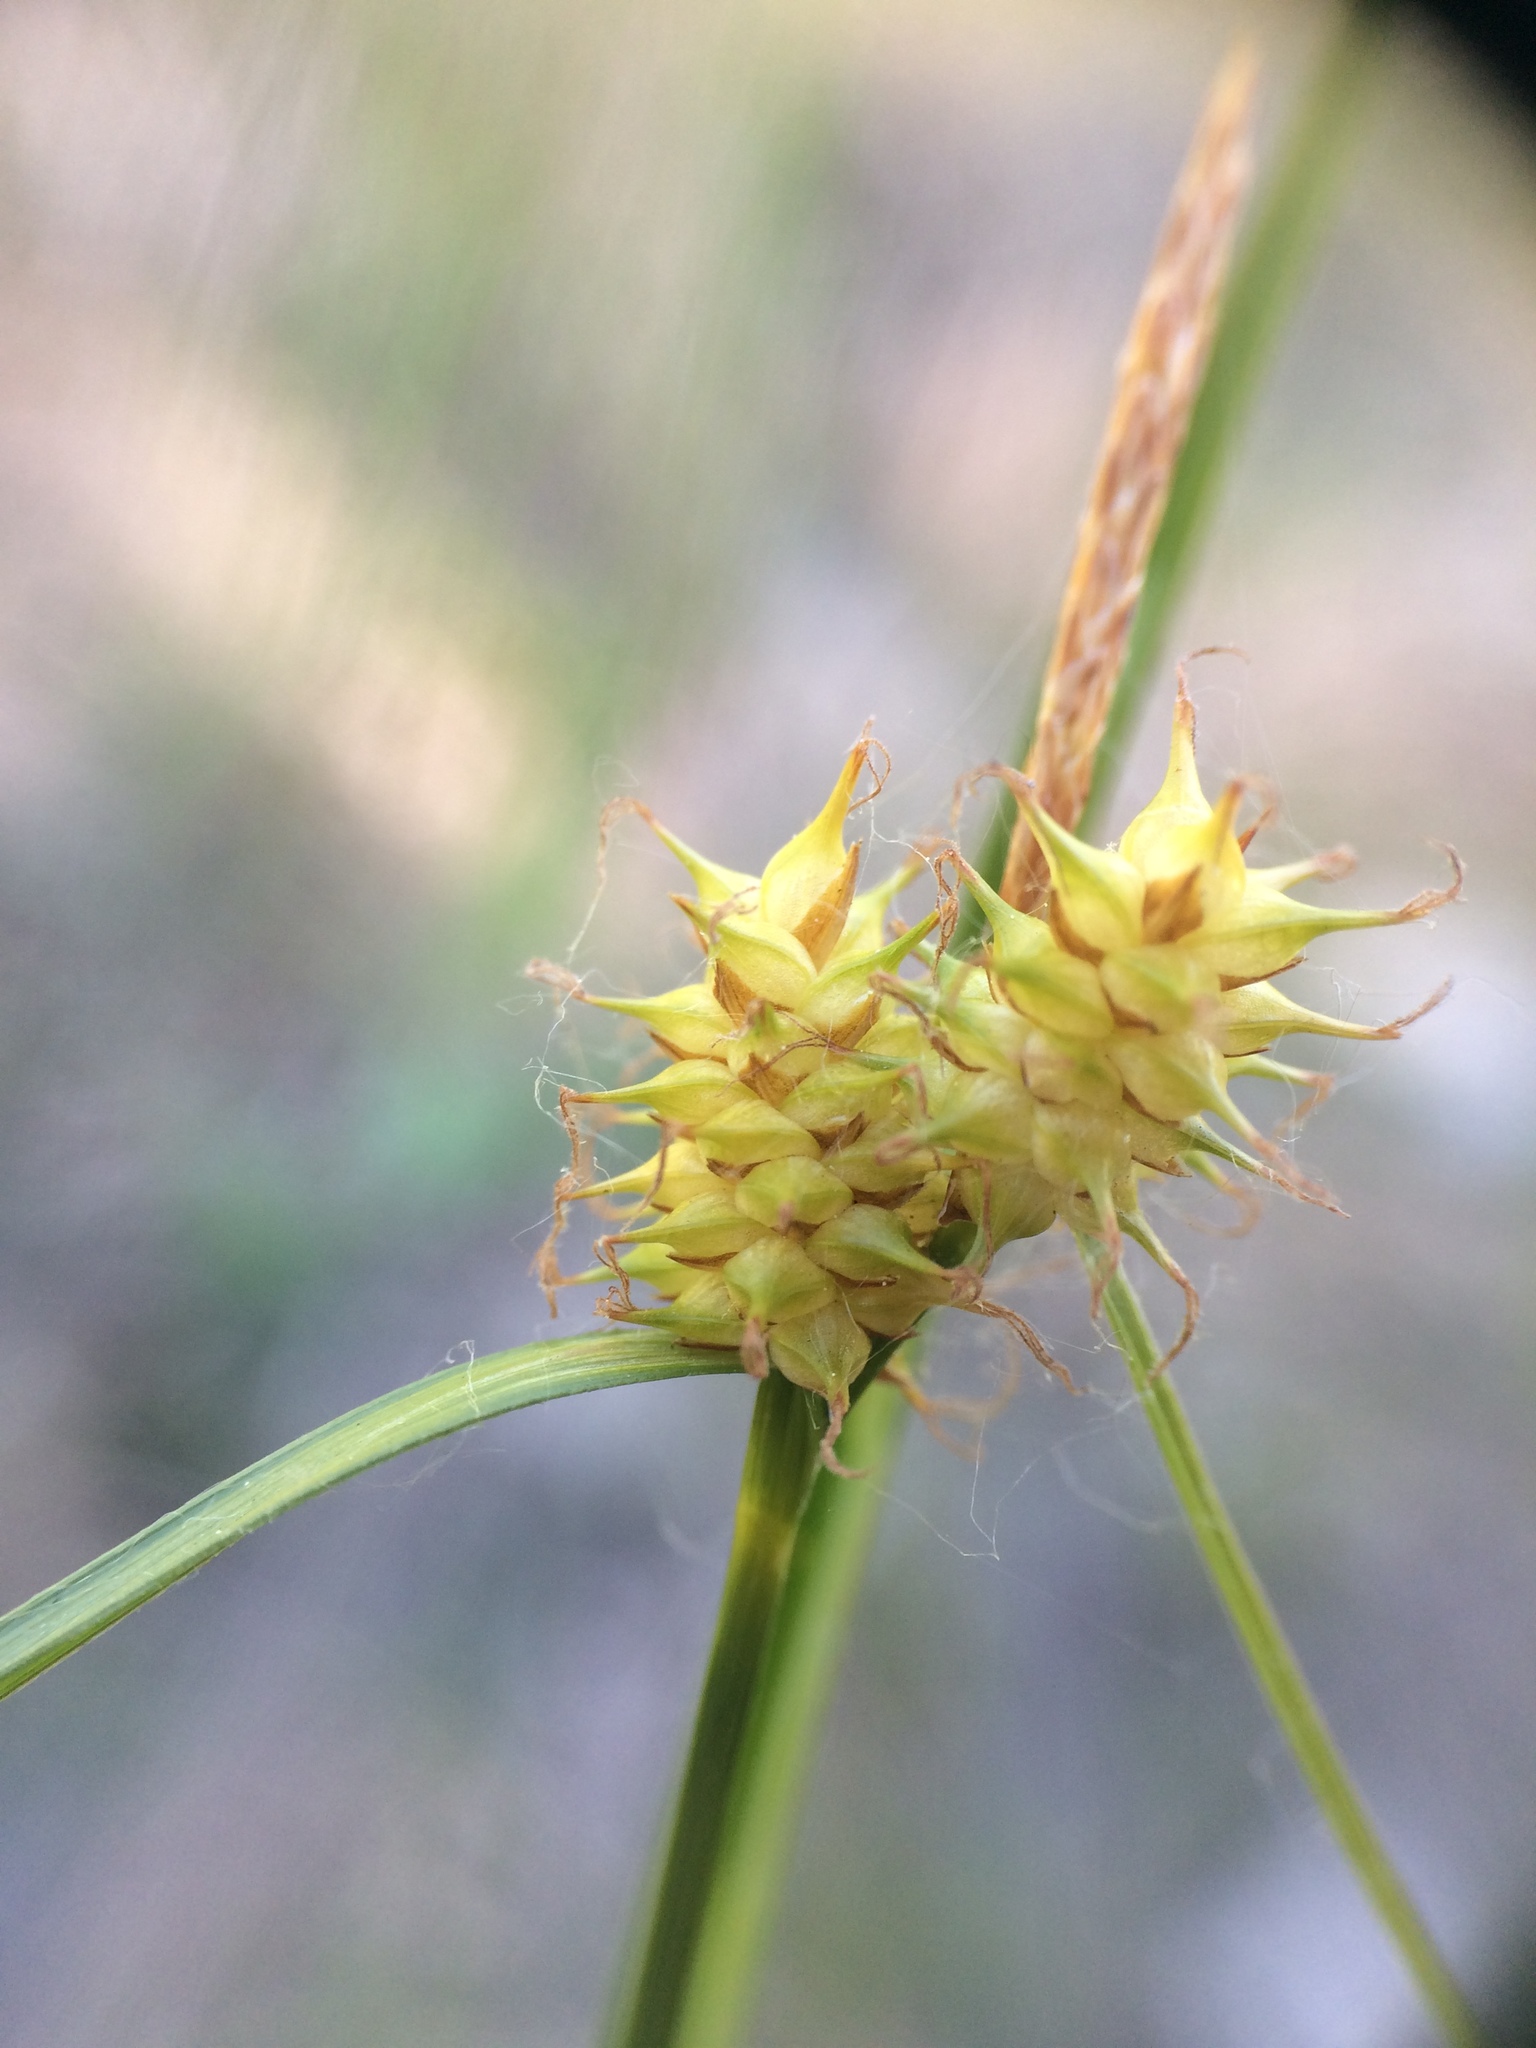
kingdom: Plantae
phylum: Tracheophyta
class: Liliopsida
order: Poales
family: Cyperaceae
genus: Carex
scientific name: Carex flava
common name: Large yellow-sedge
